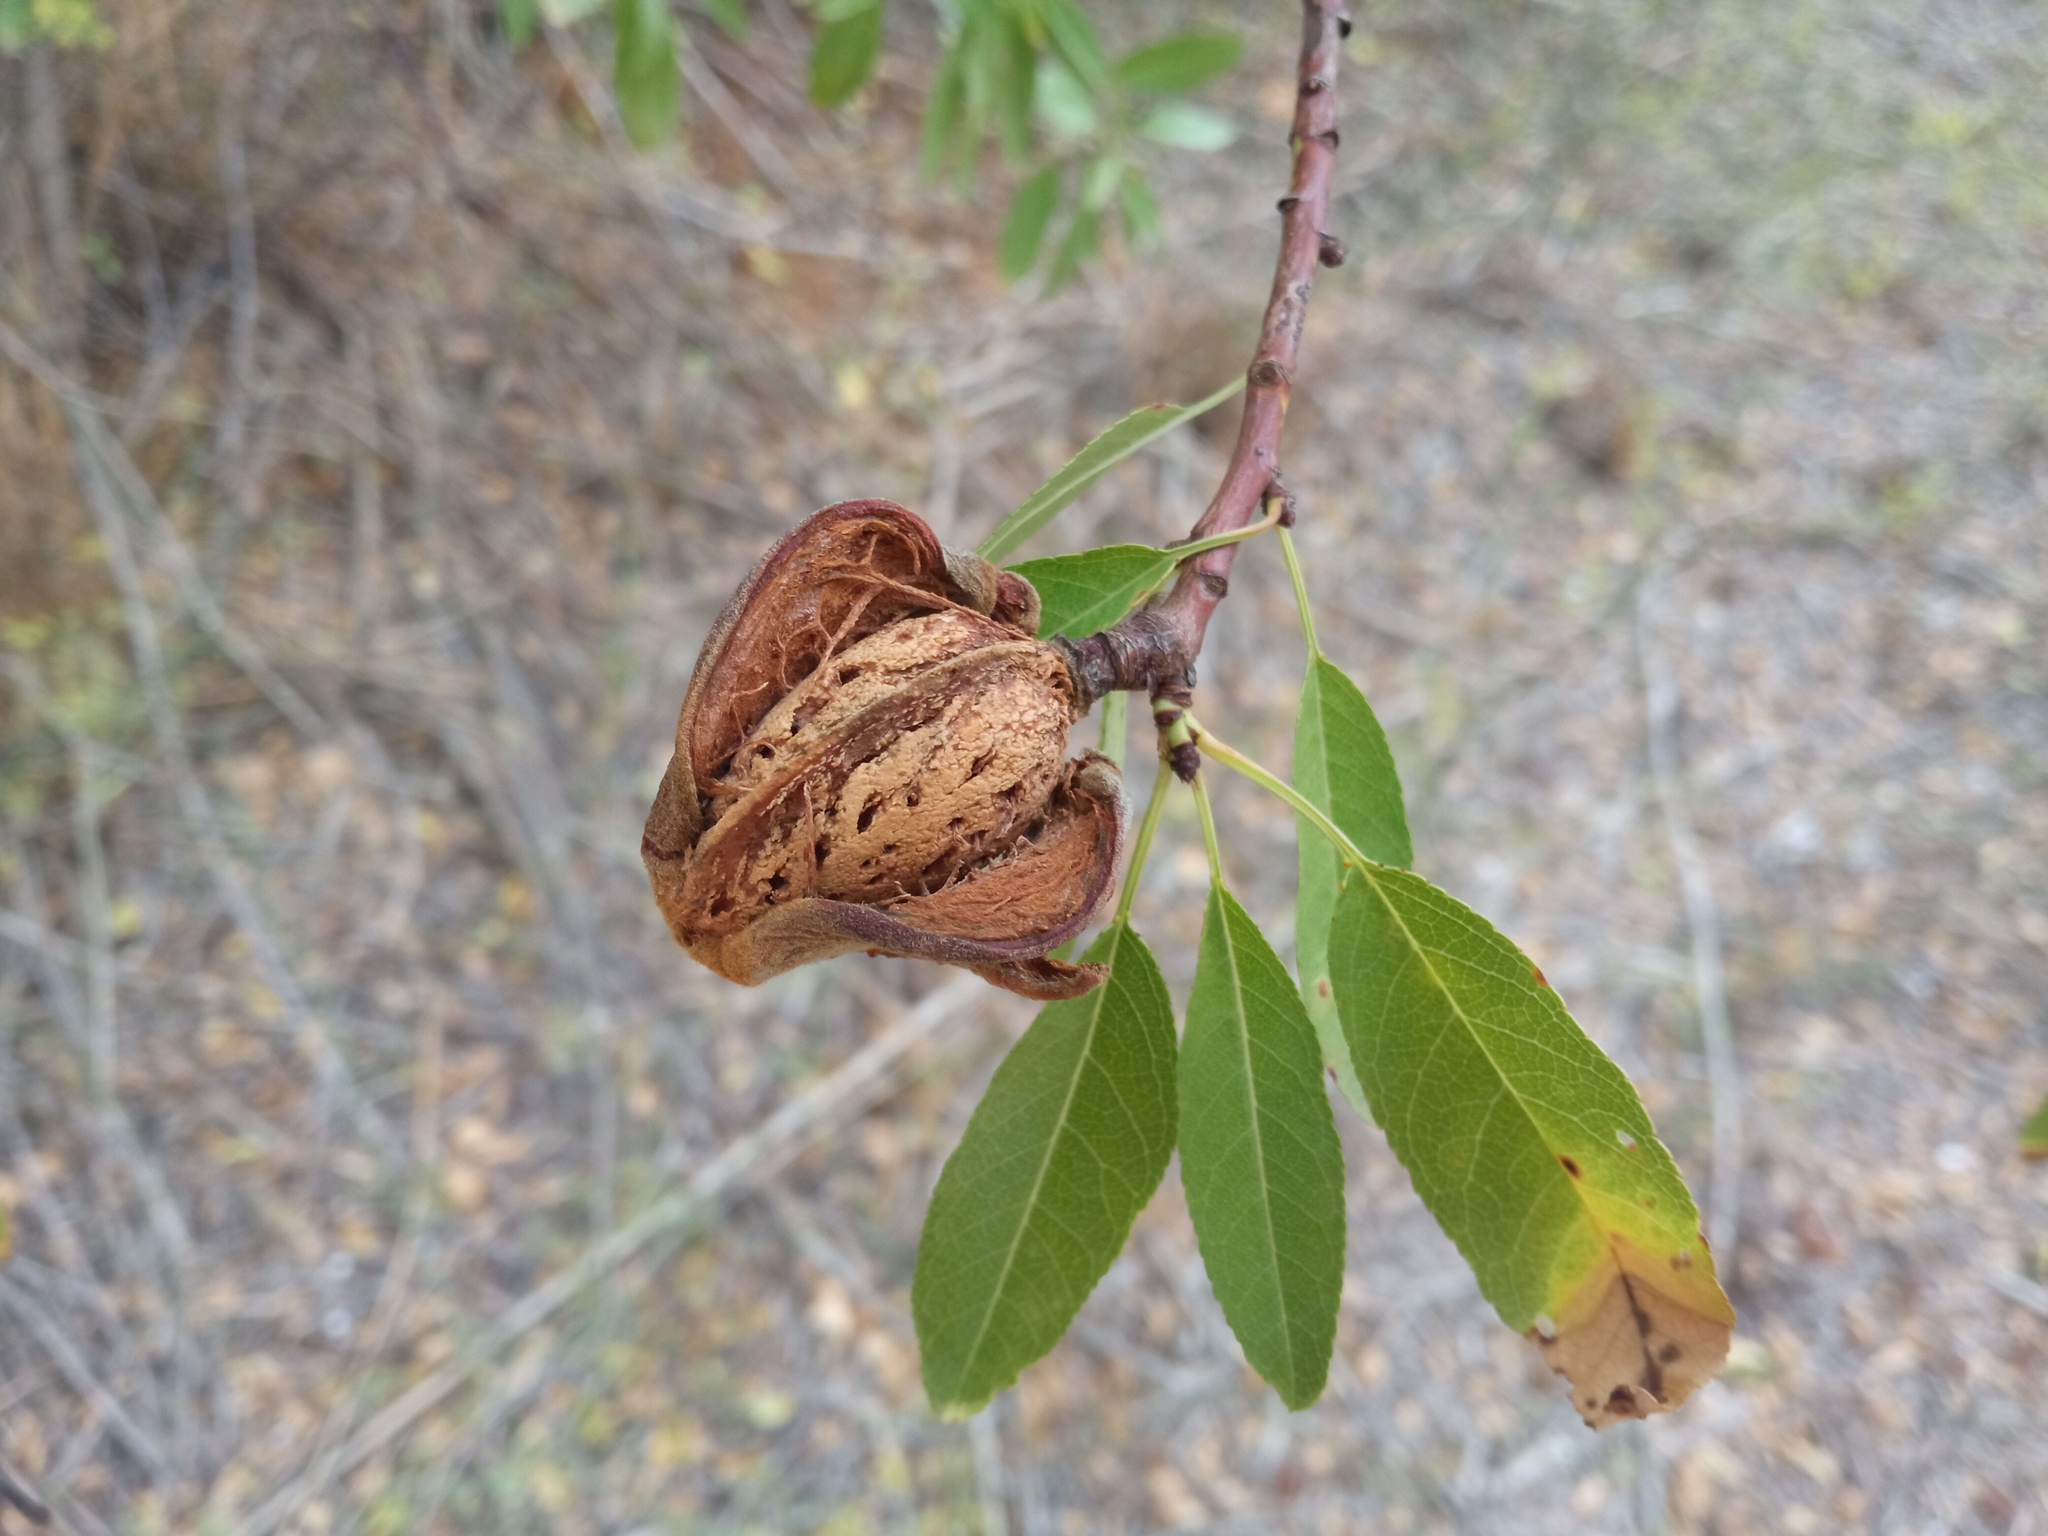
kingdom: Plantae
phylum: Tracheophyta
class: Magnoliopsida
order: Rosales
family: Rosaceae
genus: Prunus
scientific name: Prunus amygdalus
